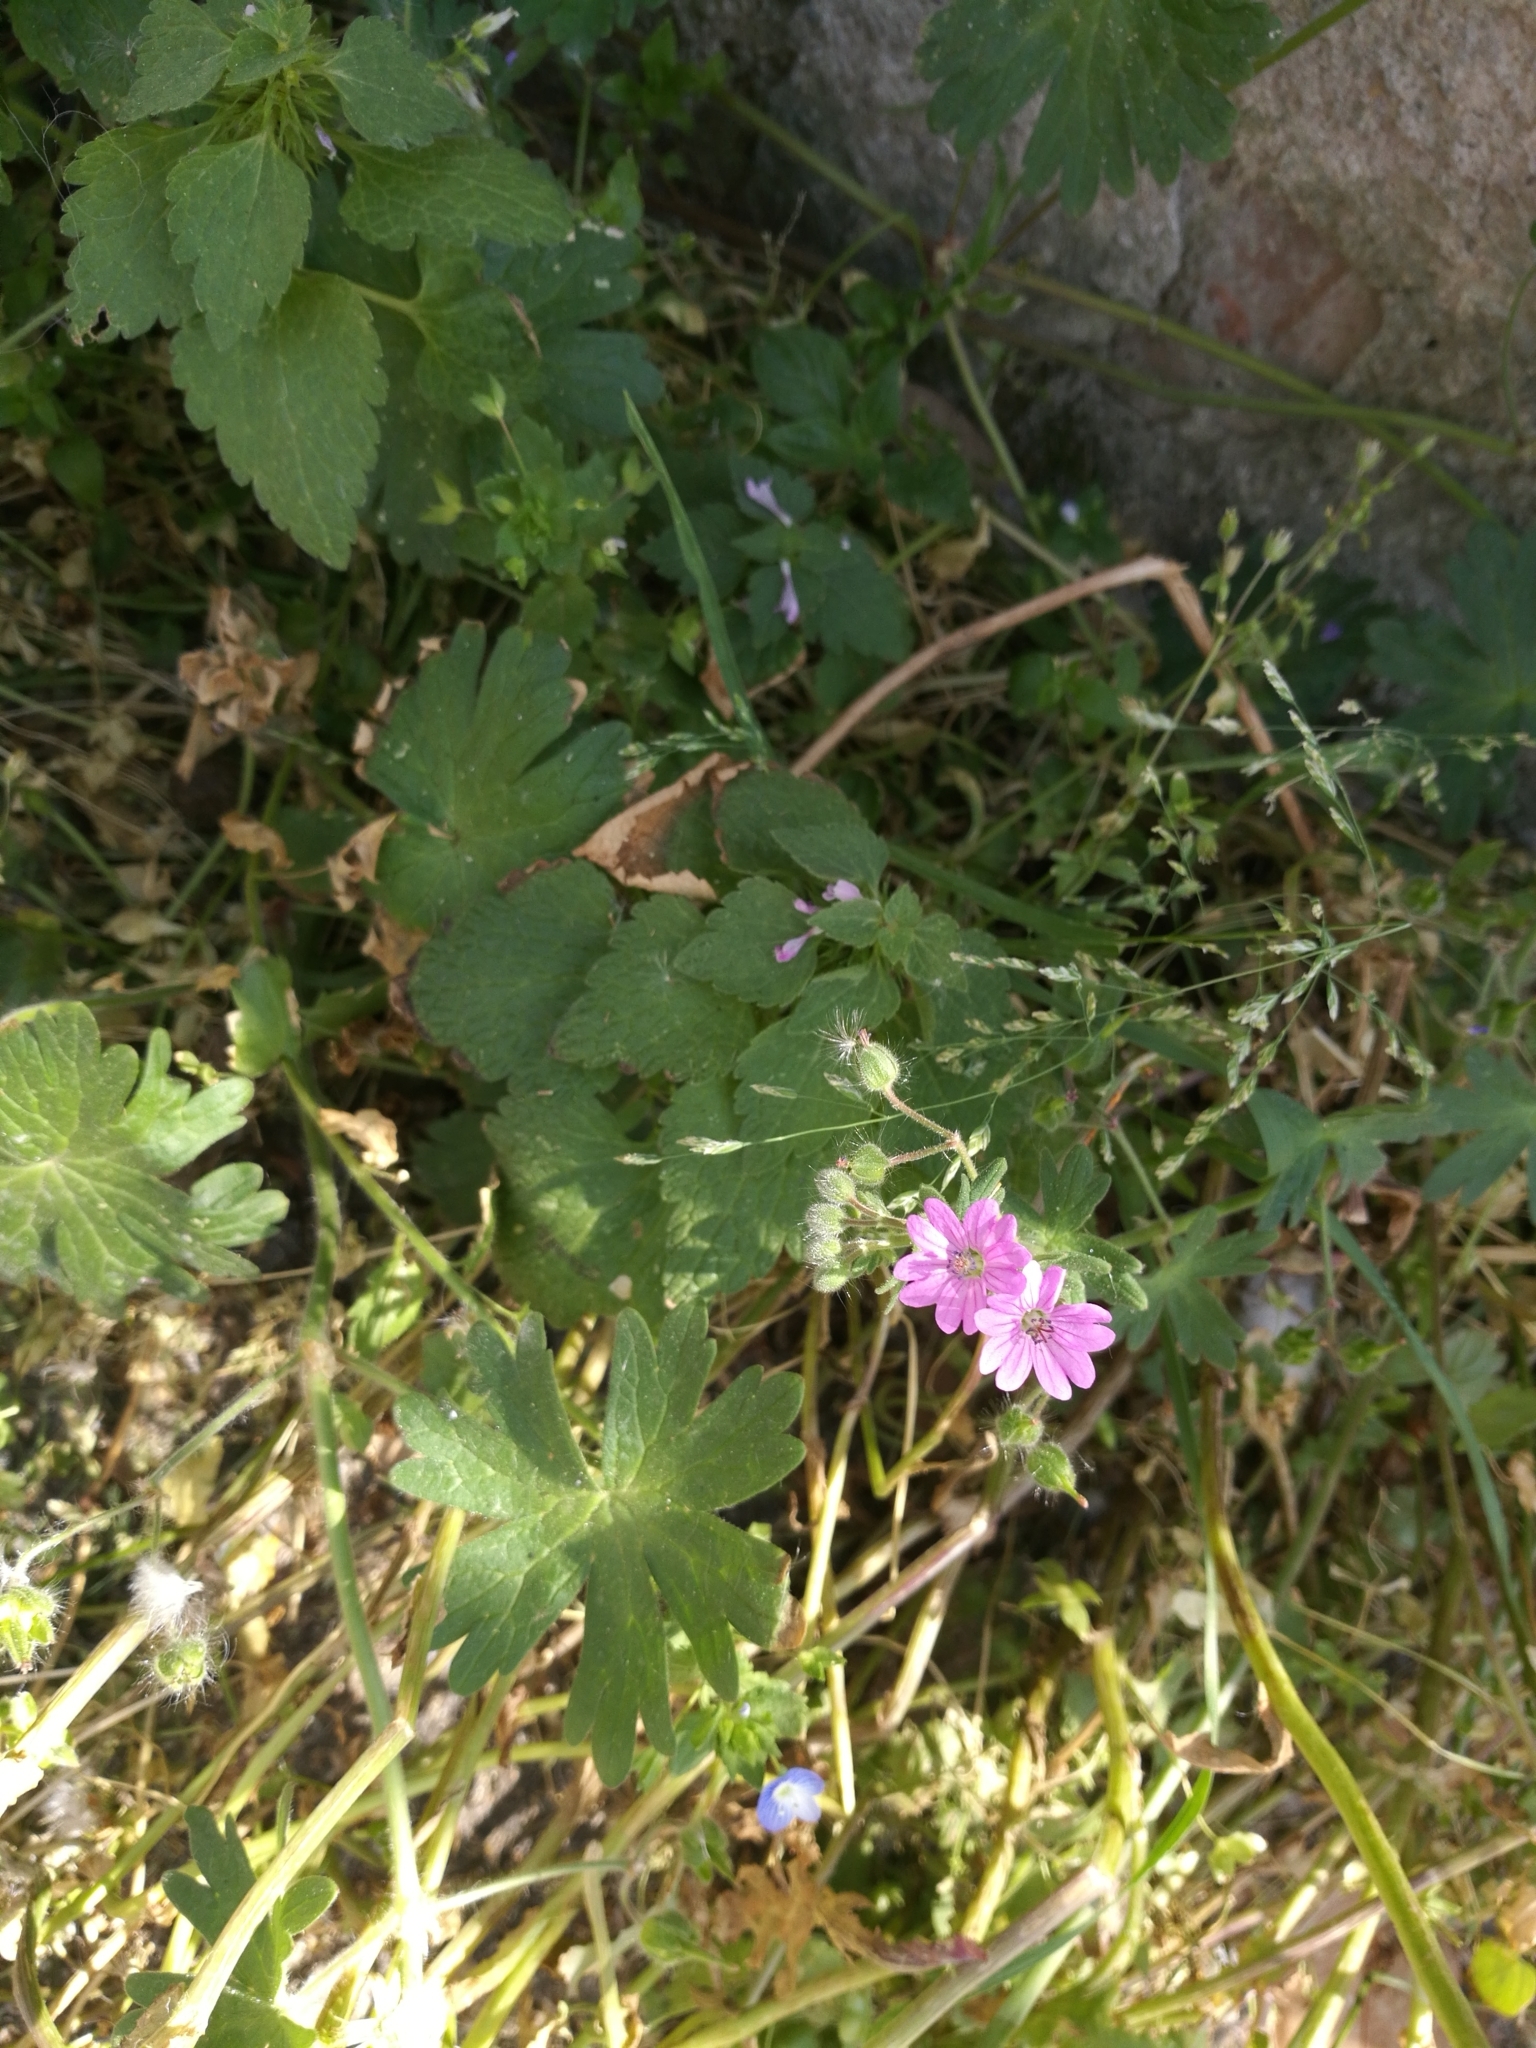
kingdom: Plantae
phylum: Tracheophyta
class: Magnoliopsida
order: Geraniales
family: Geraniaceae
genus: Geranium
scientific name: Geranium molle
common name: Dove's-foot crane's-bill
